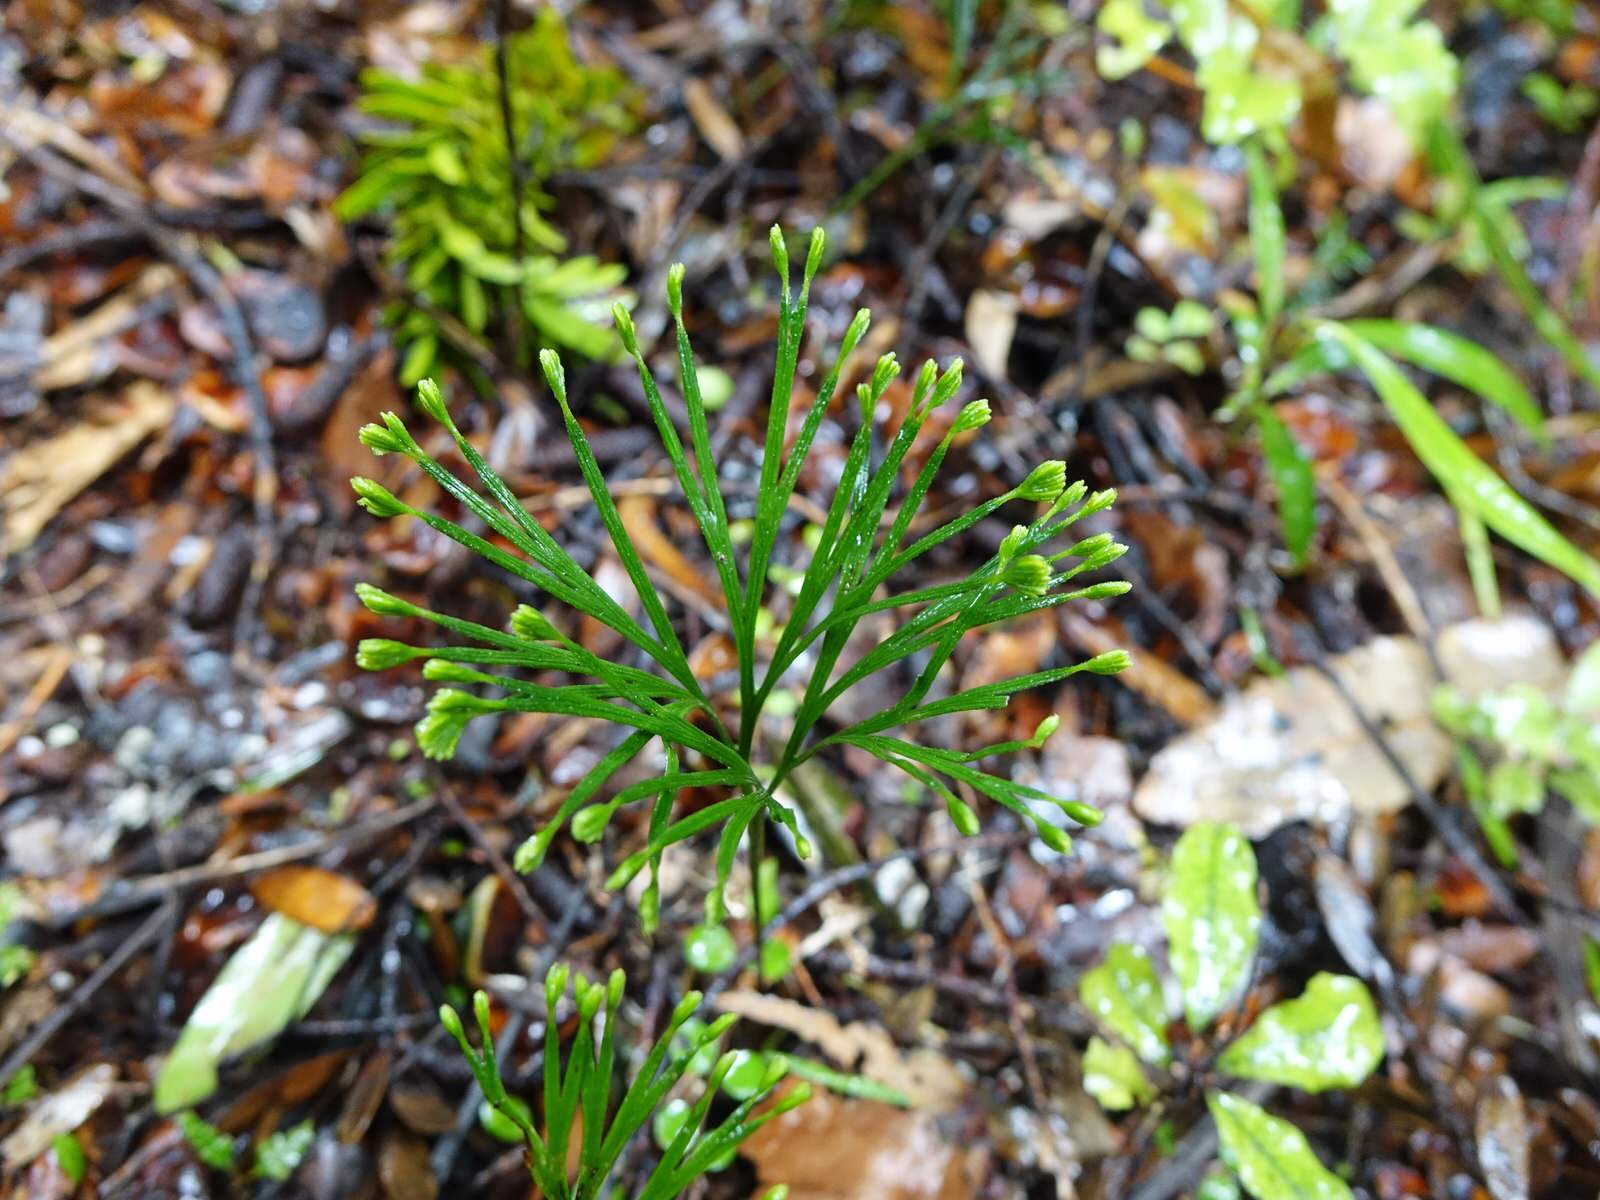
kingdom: Plantae
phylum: Tracheophyta
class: Polypodiopsida
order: Schizaeales
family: Schizaeaceae
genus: Schizaea
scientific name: Schizaea dichotoma
